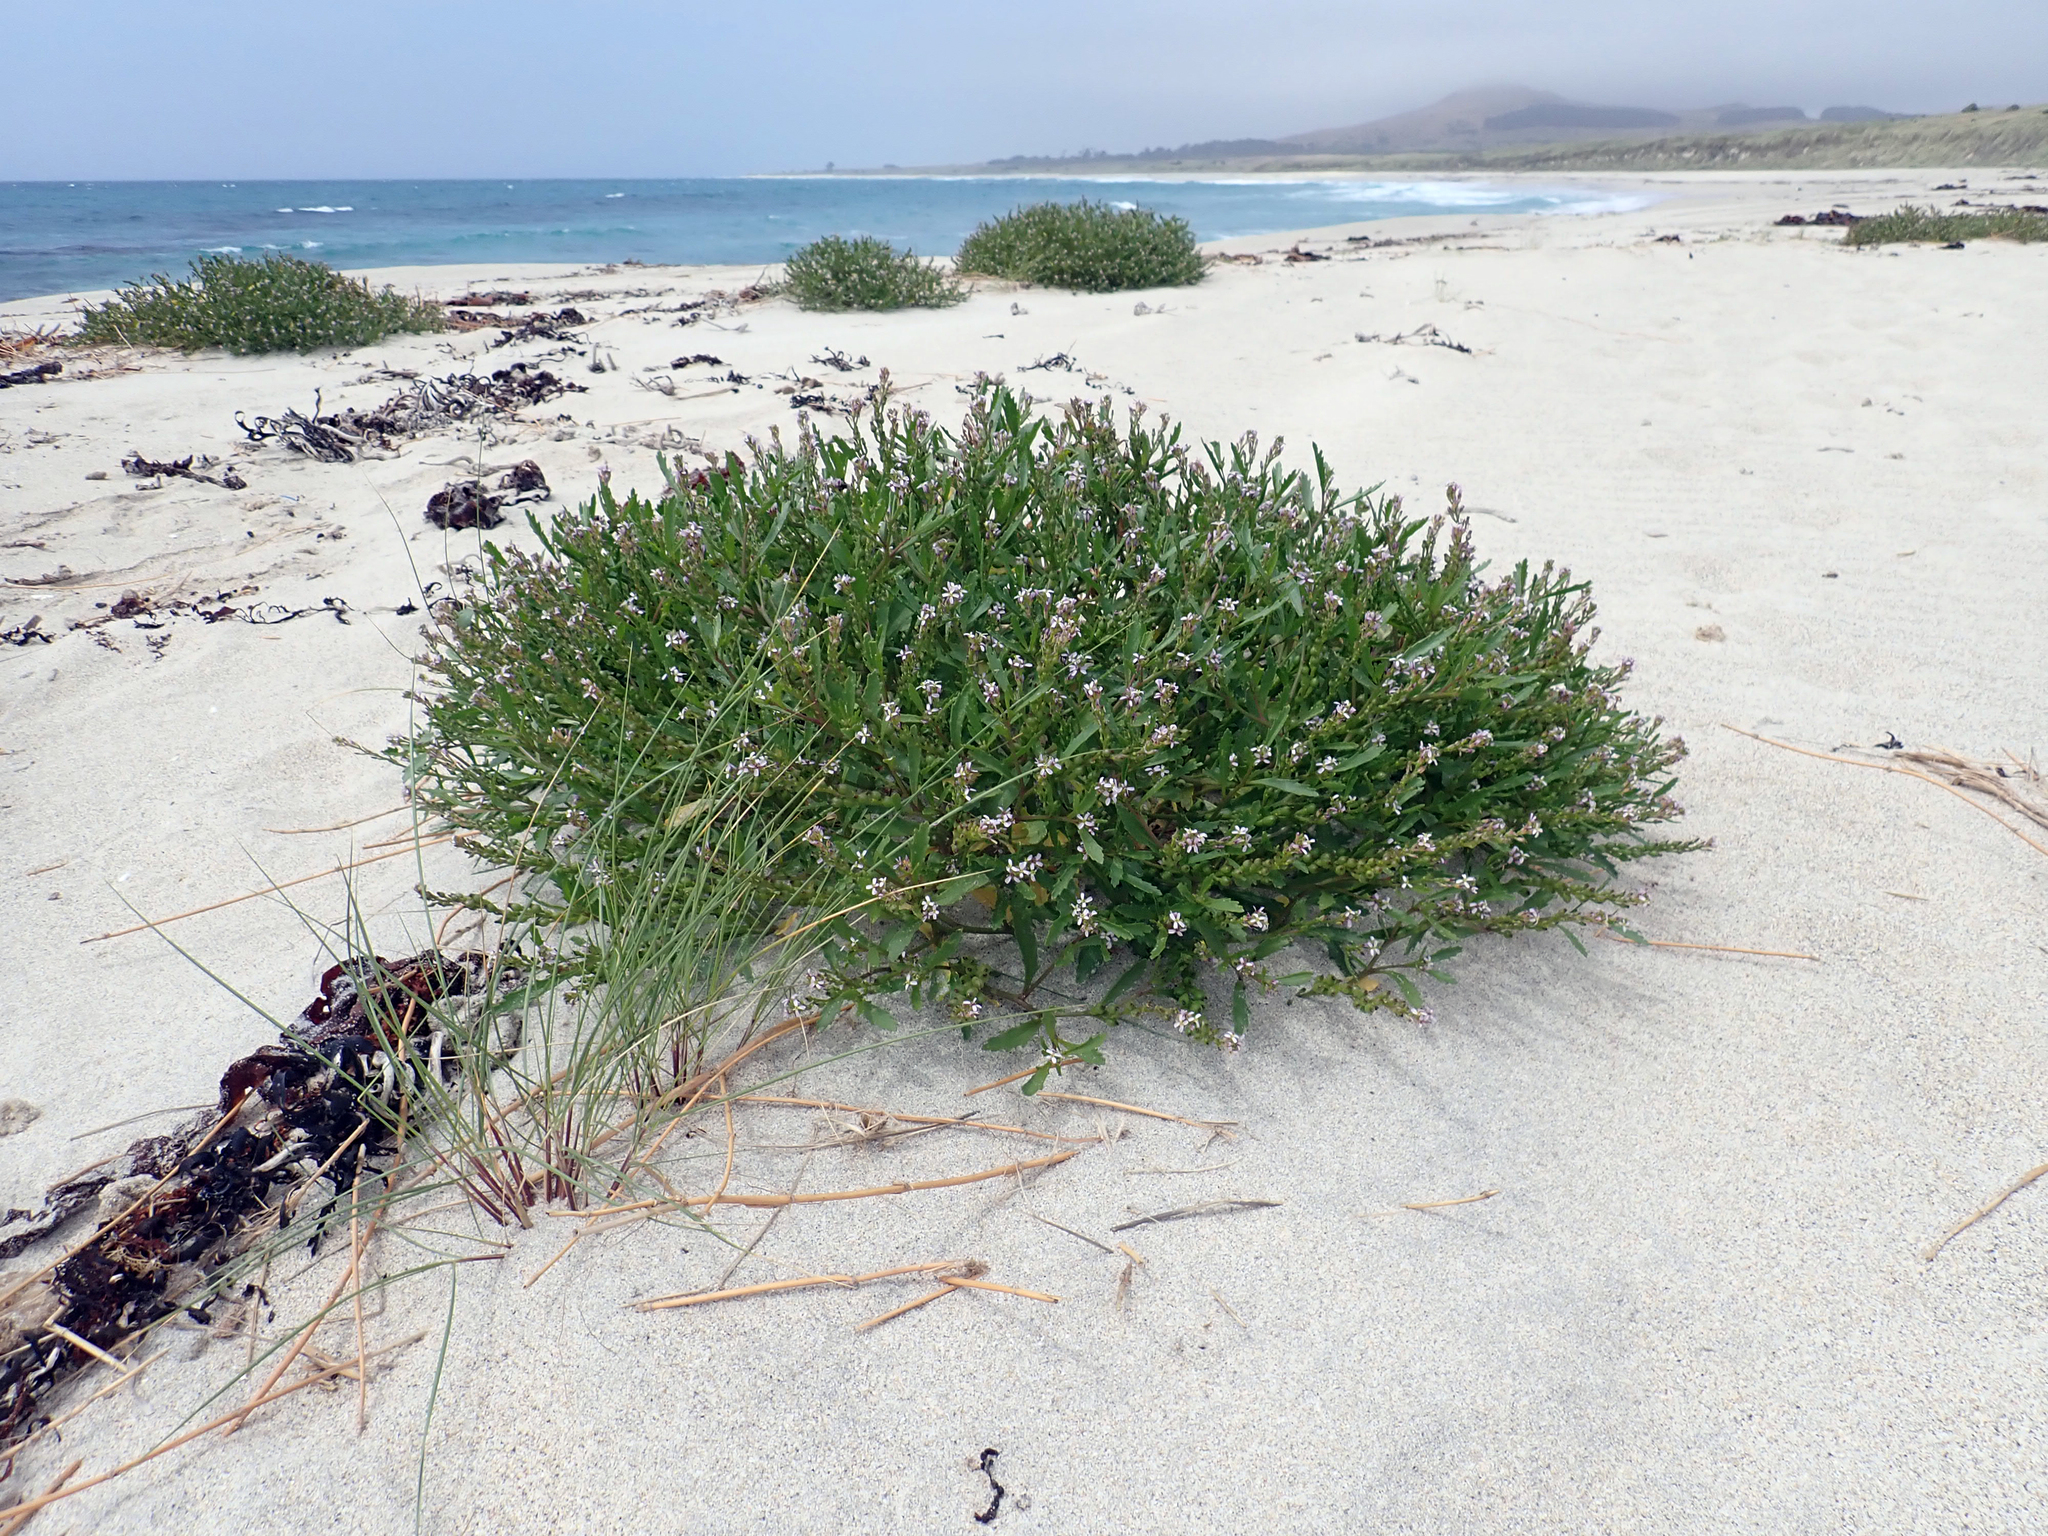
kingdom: Plantae
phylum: Tracheophyta
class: Magnoliopsida
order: Brassicales
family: Brassicaceae
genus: Cakile
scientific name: Cakile edentula
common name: American sea rocket
